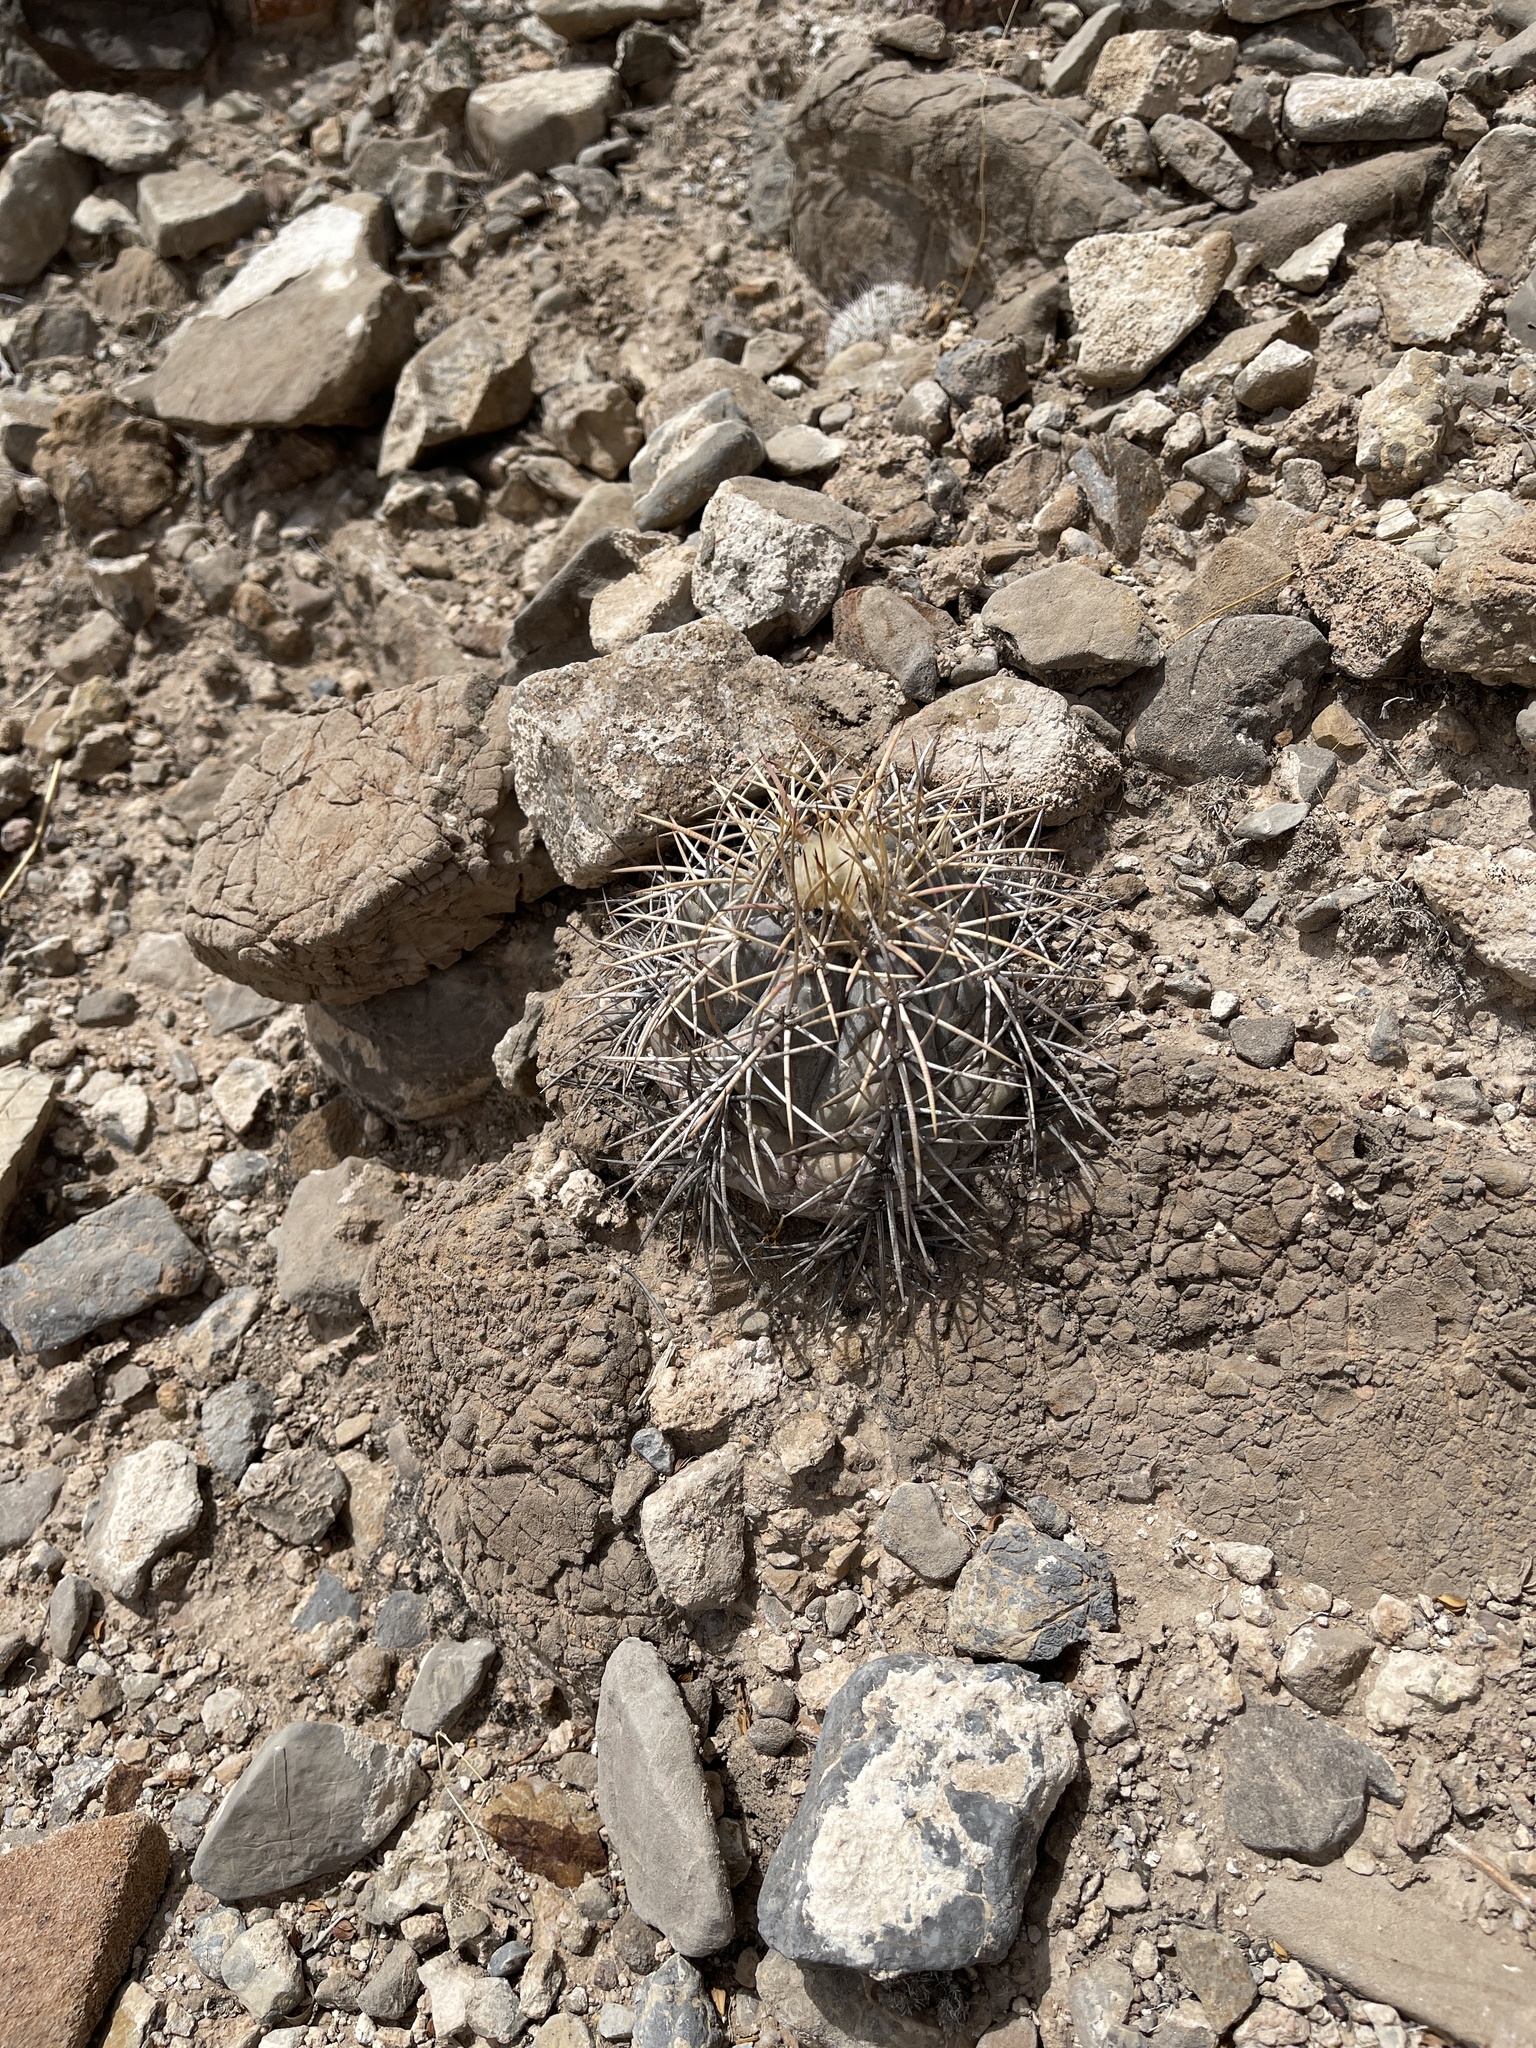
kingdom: Plantae
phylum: Tracheophyta
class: Magnoliopsida
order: Caryophyllales
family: Cactaceae
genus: Echinocactus
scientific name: Echinocactus horizonthalonius
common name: Devilshead
